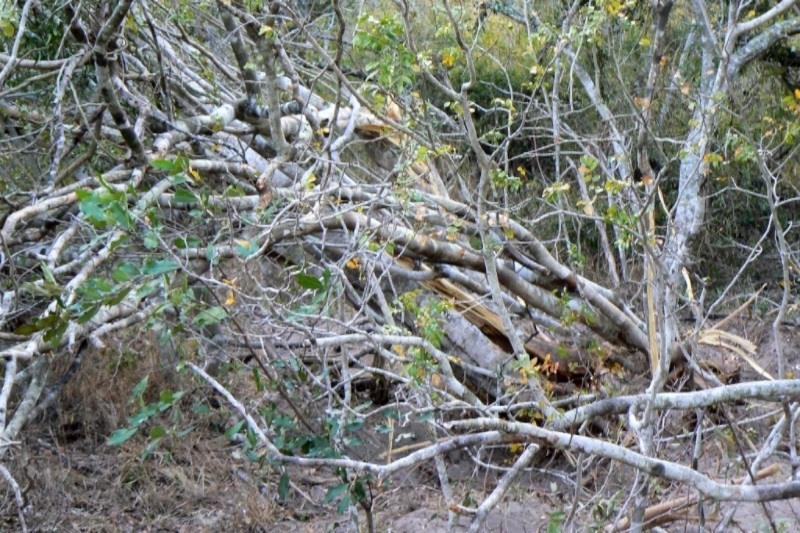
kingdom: Plantae
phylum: Tracheophyta
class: Magnoliopsida
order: Fabales
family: Fabaceae
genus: Dialium
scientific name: Dialium schlechteri
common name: Zulu pod-berry
